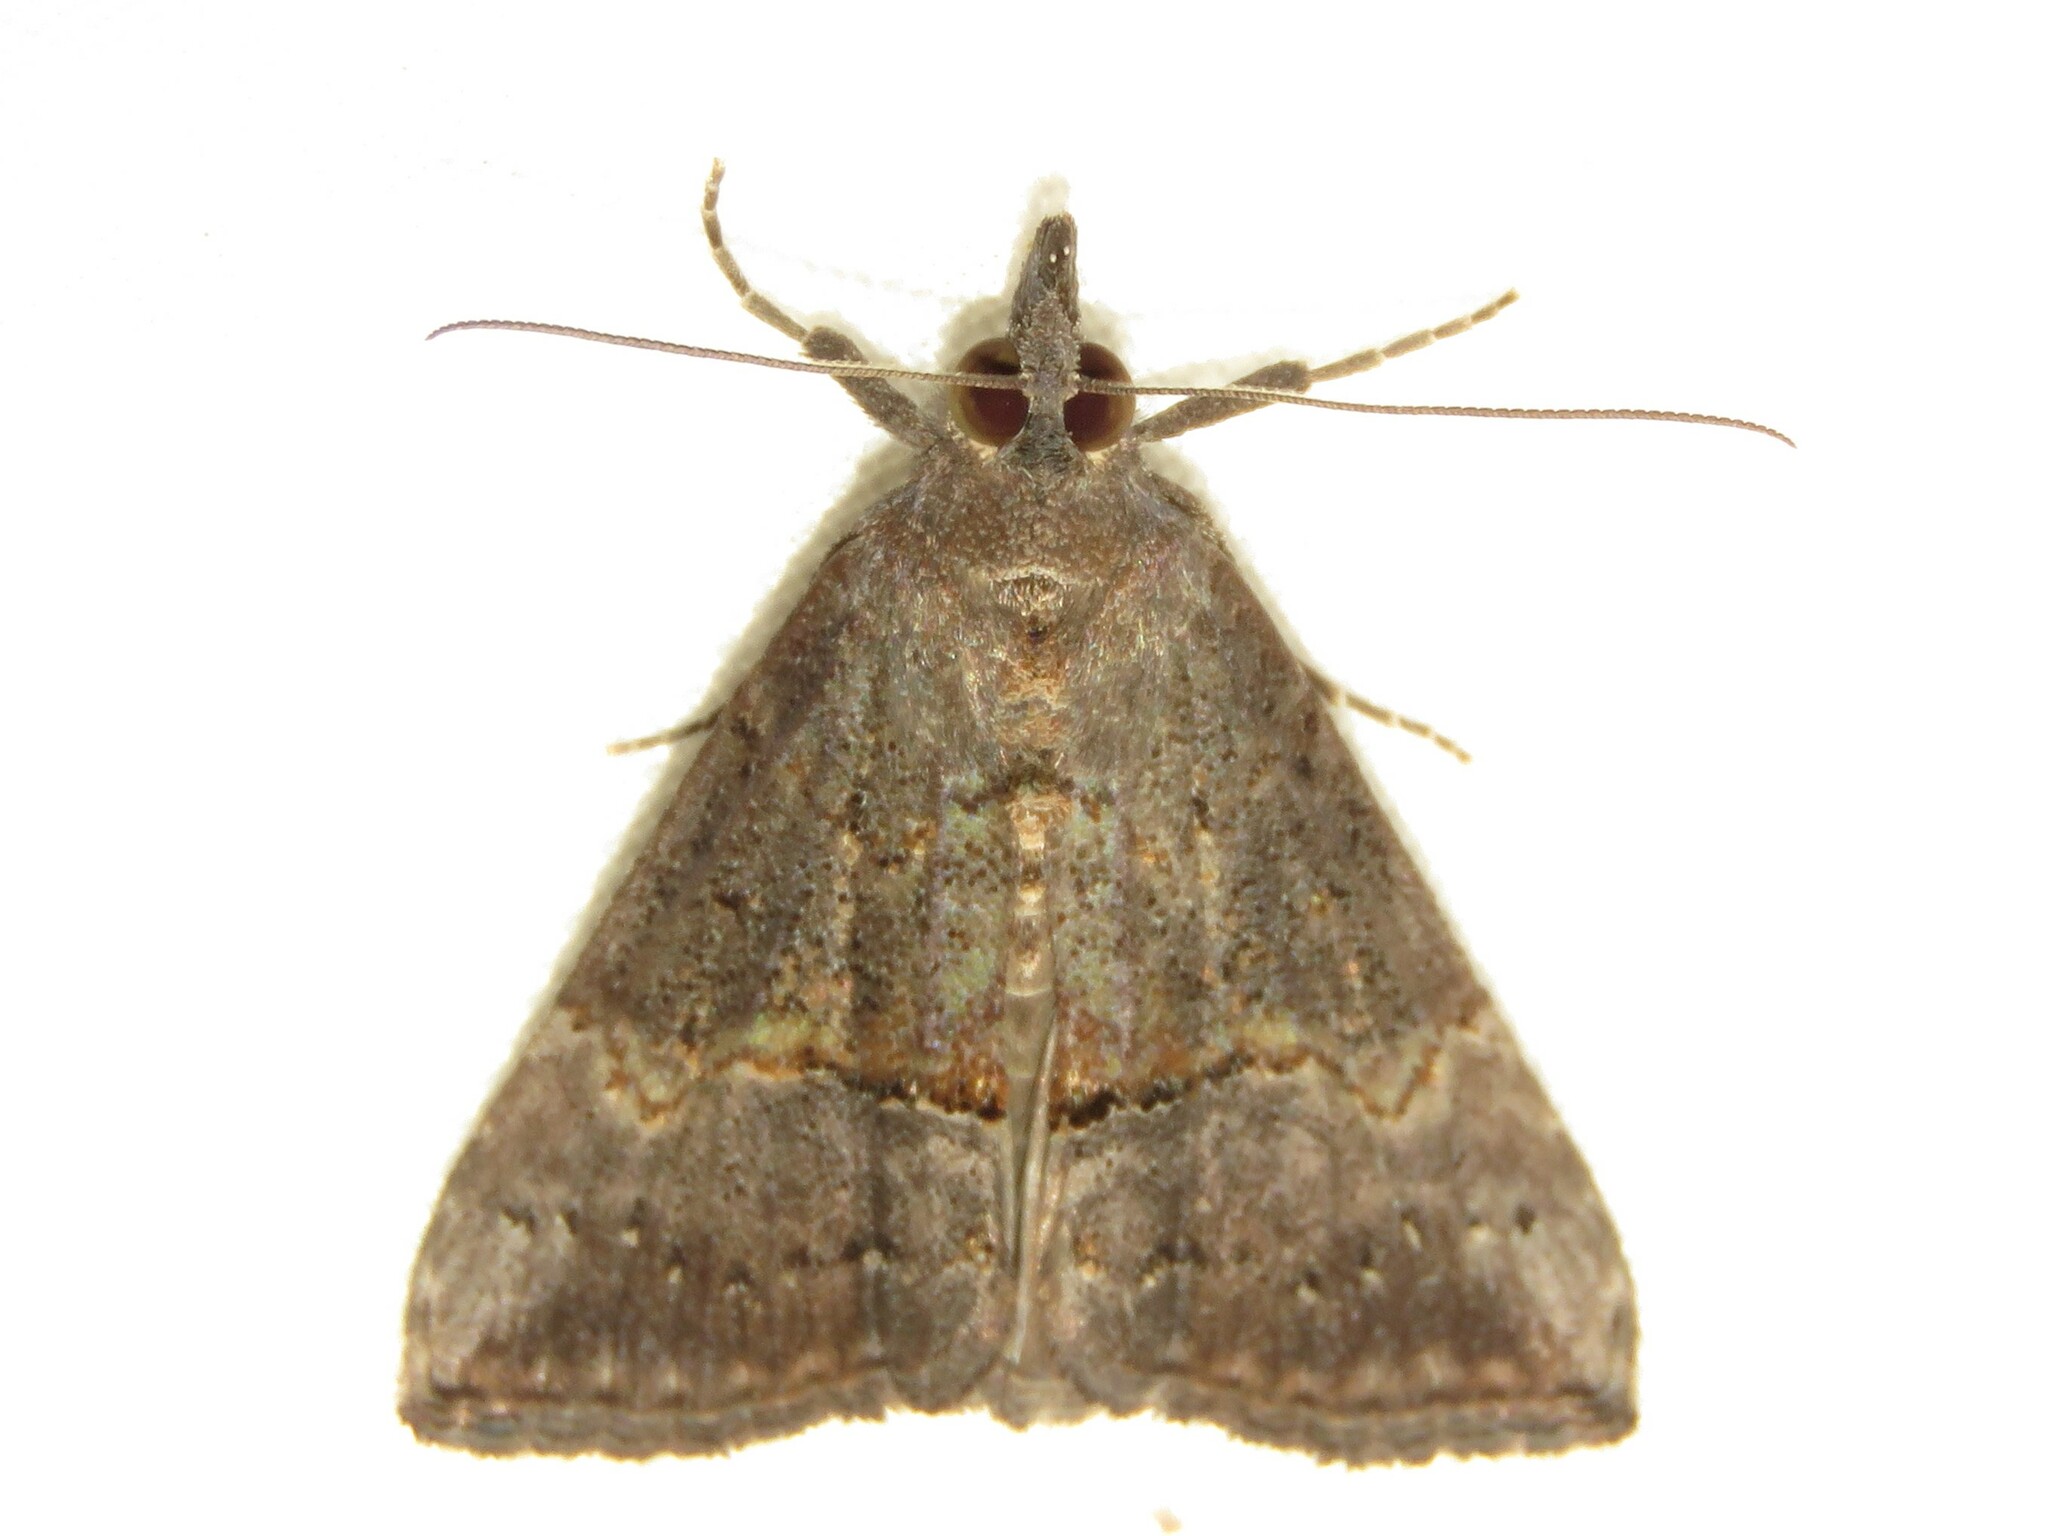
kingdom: Animalia
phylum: Arthropoda
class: Insecta
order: Lepidoptera
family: Erebidae
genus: Hypena
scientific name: Hypena scabra
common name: Green cloverworm
